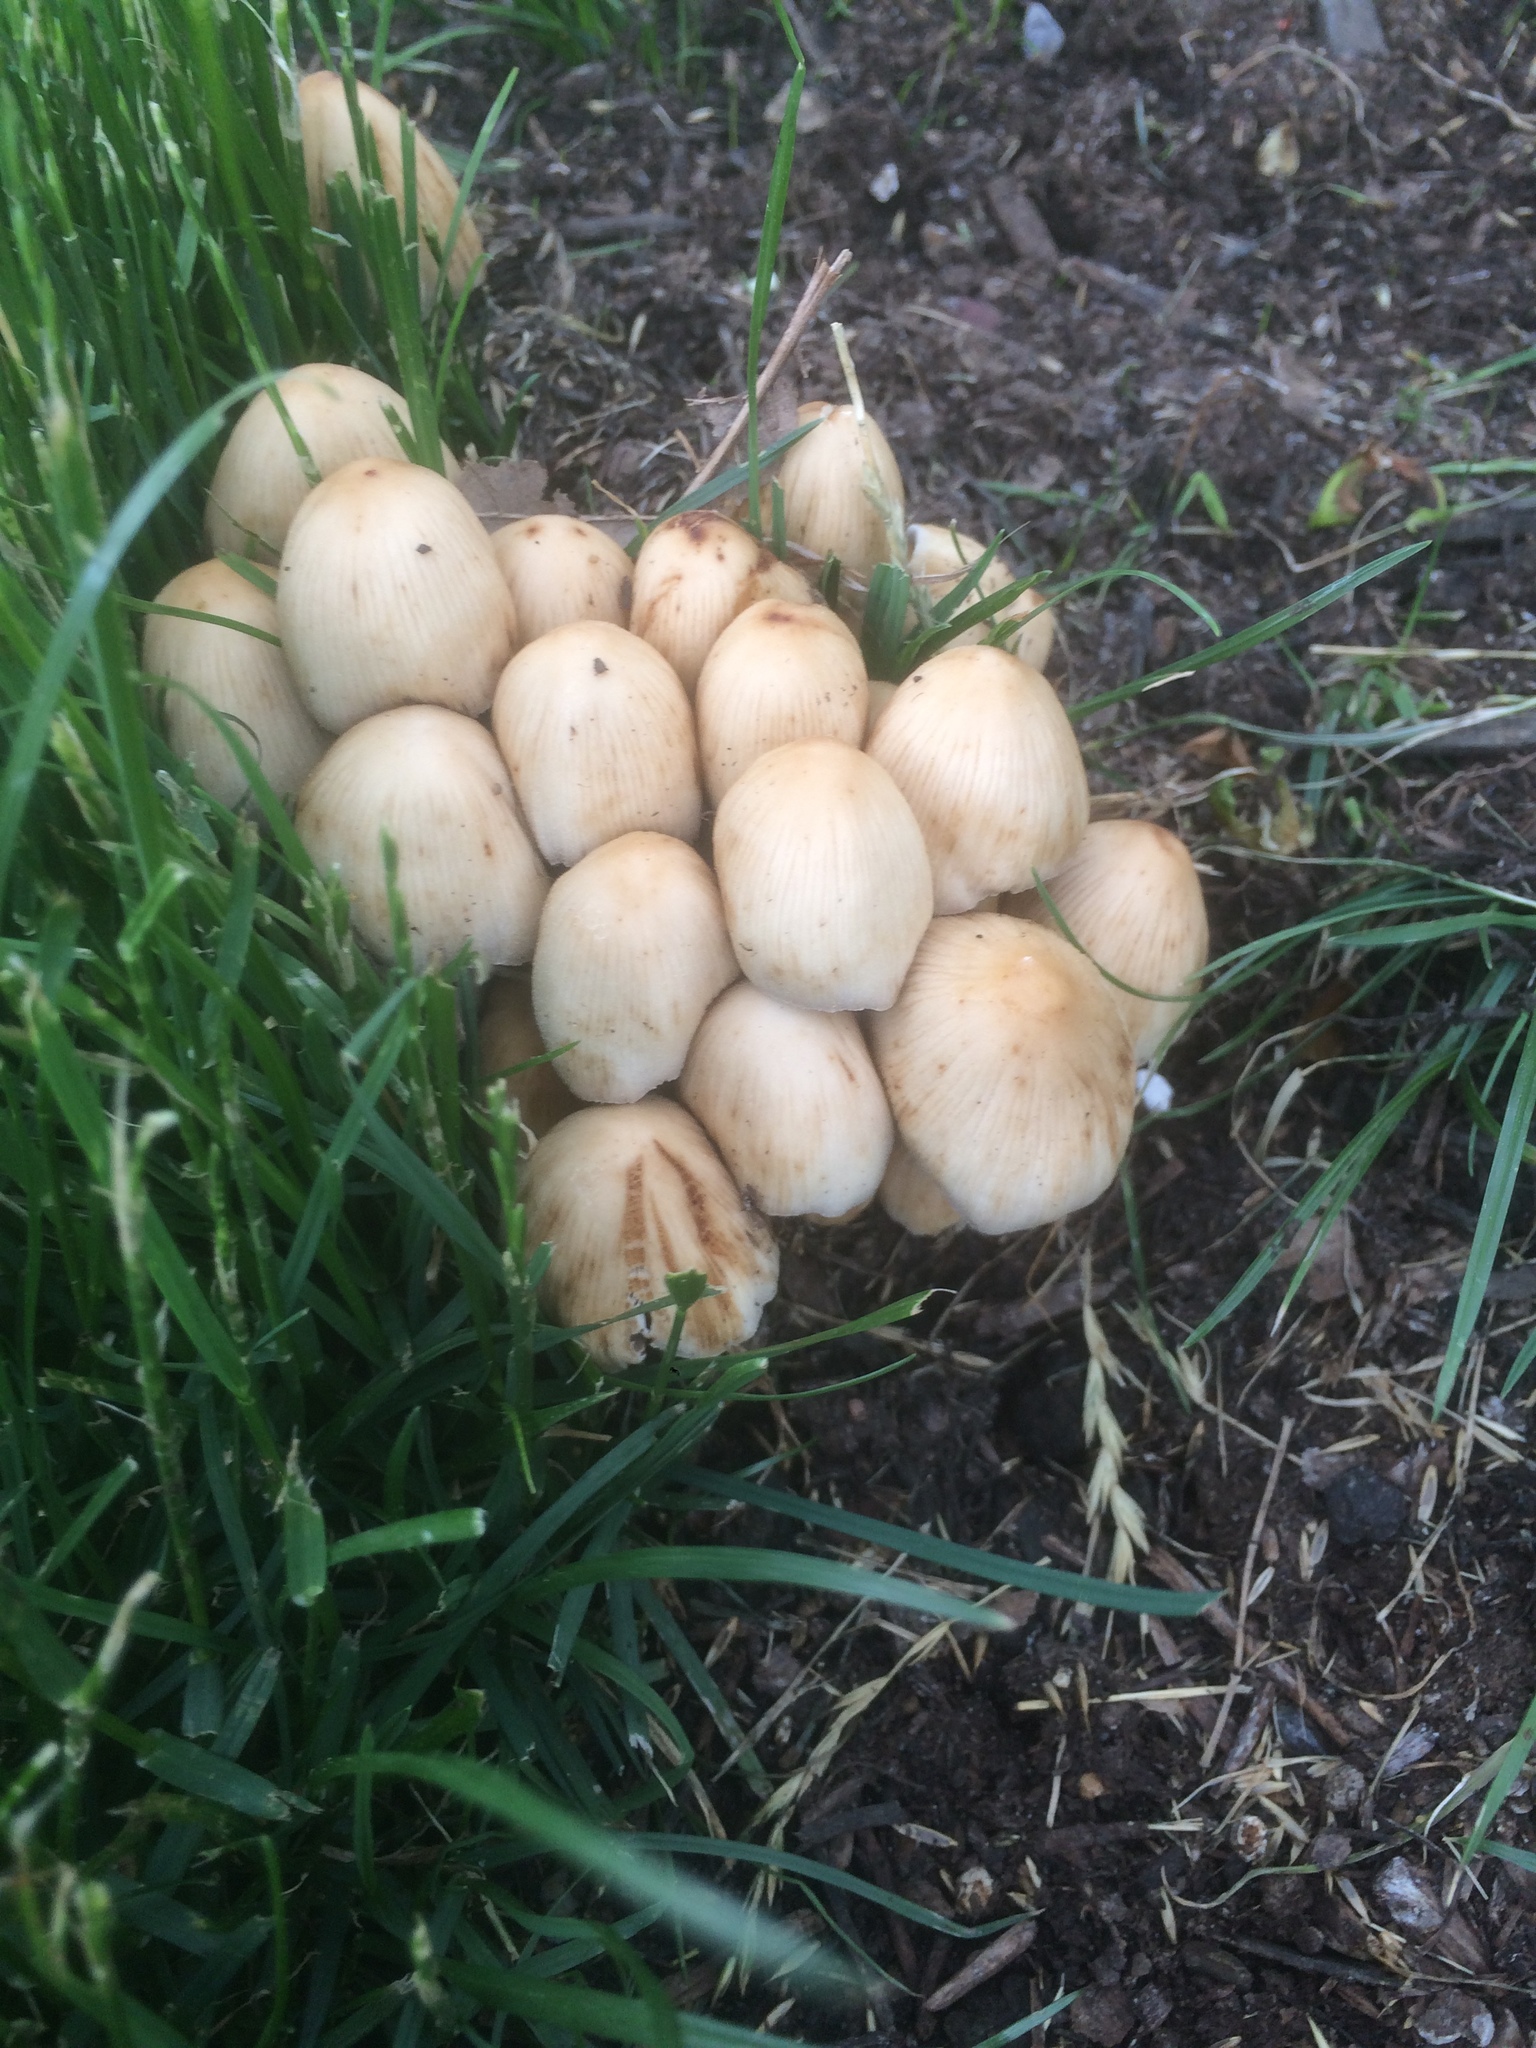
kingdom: Fungi
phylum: Basidiomycota
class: Agaricomycetes
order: Agaricales
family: Psathyrellaceae
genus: Coprinellus
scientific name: Coprinellus micaceus
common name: Glistening ink-cap
